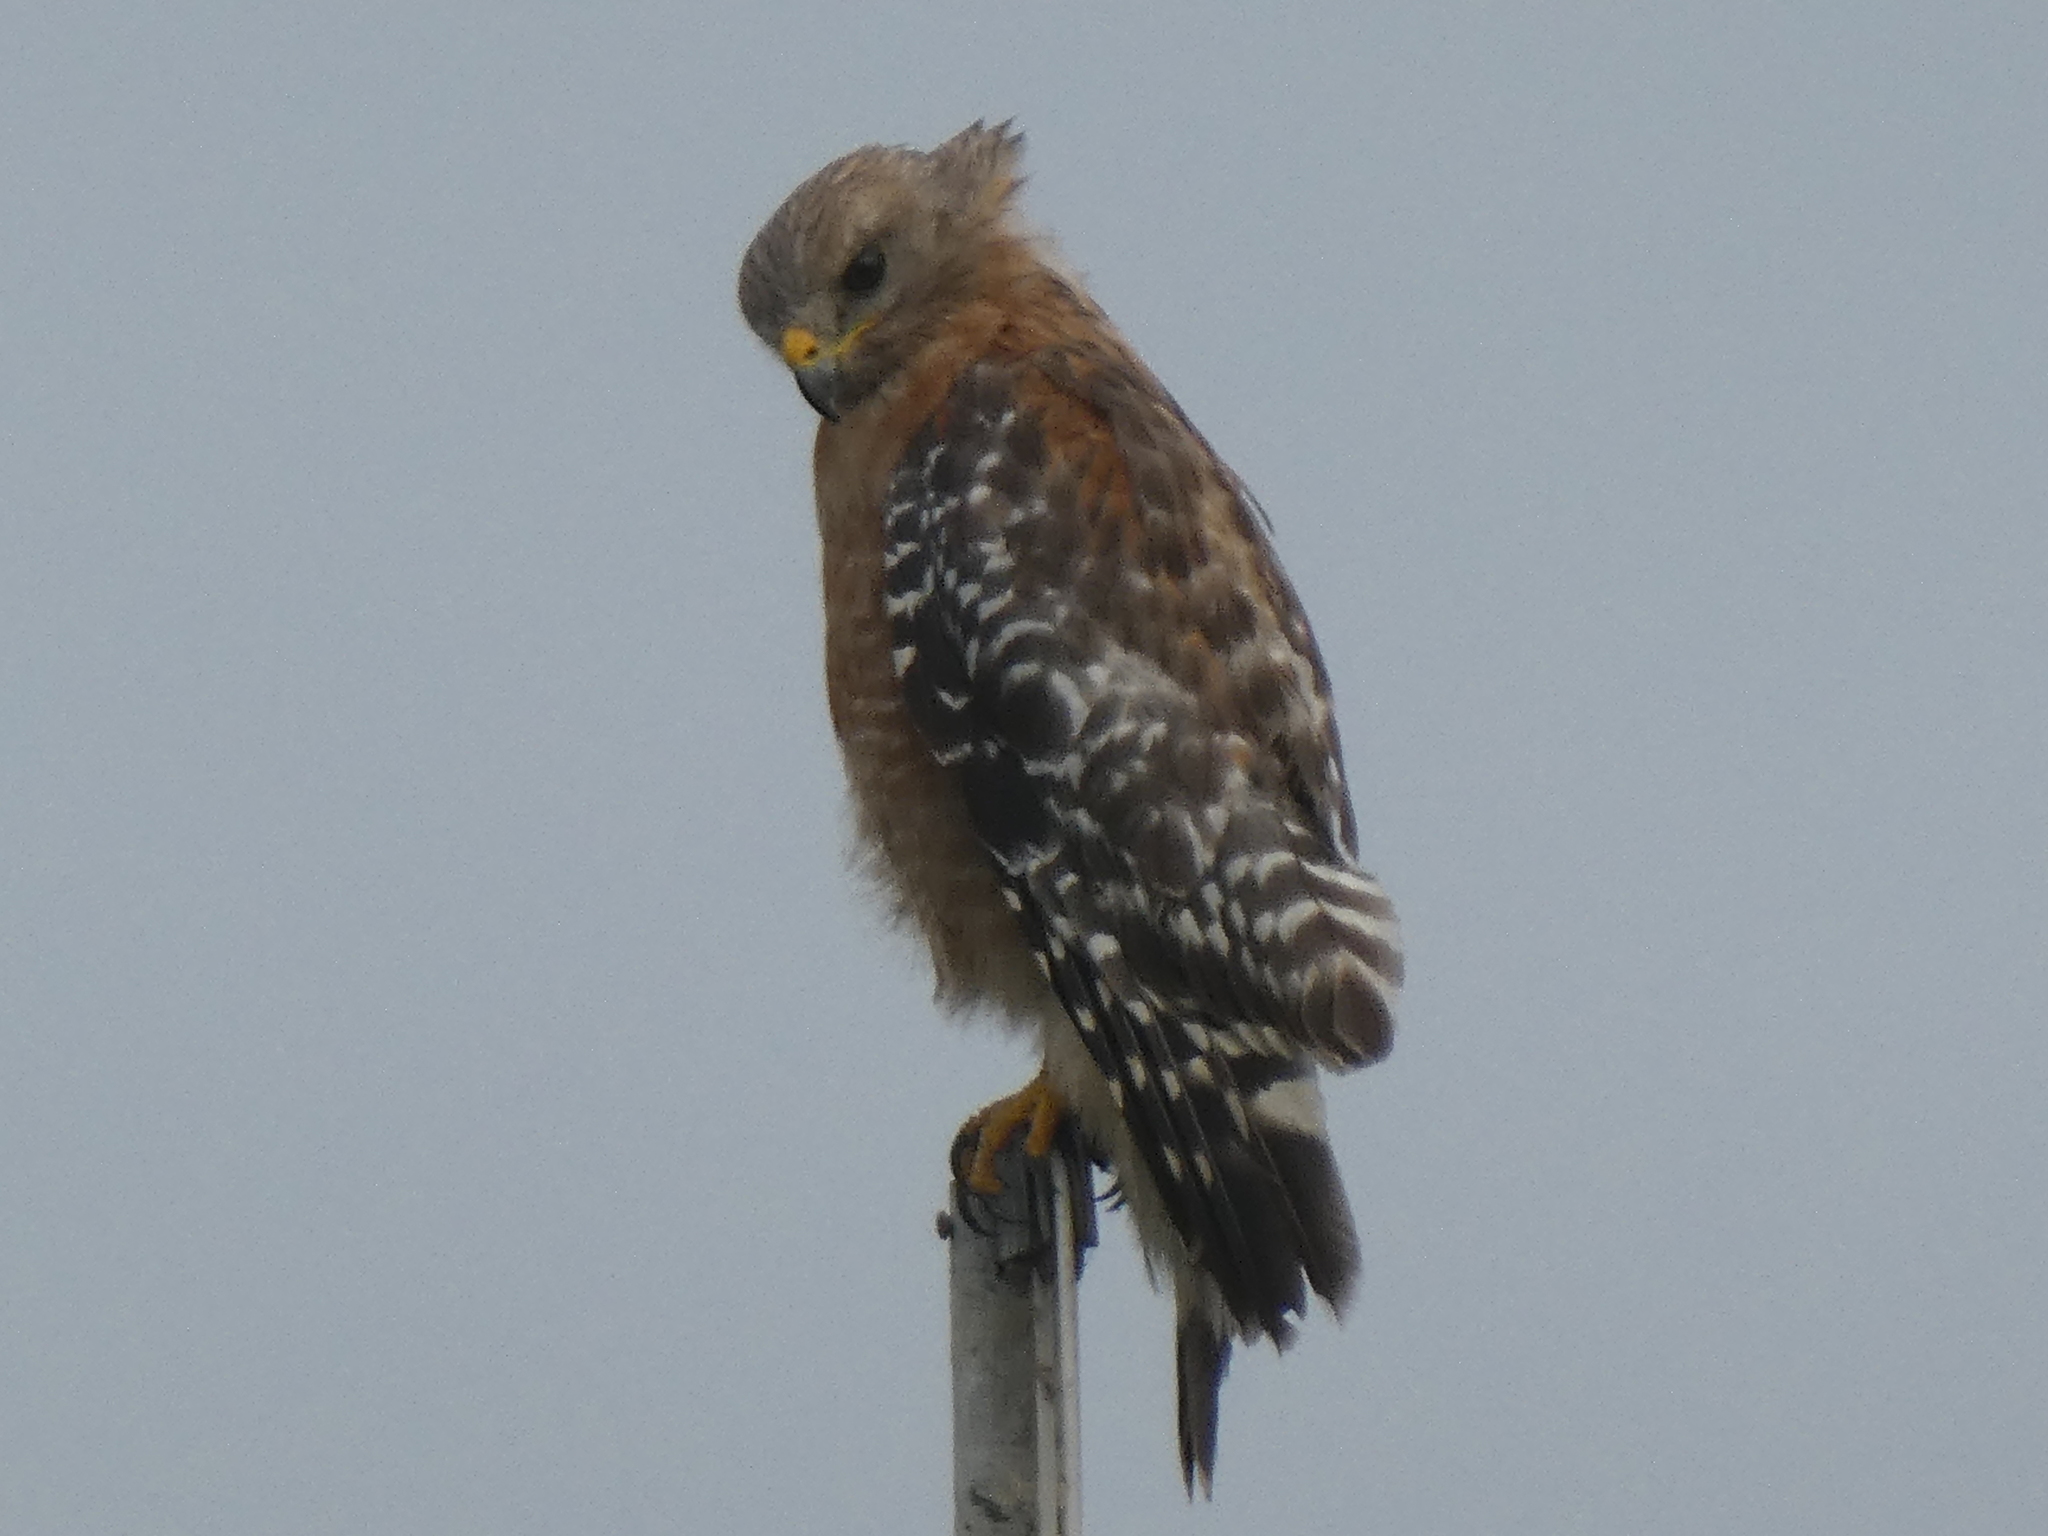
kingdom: Animalia
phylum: Chordata
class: Aves
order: Accipitriformes
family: Accipitridae
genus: Buteo
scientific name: Buteo lineatus
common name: Red-shouldered hawk
